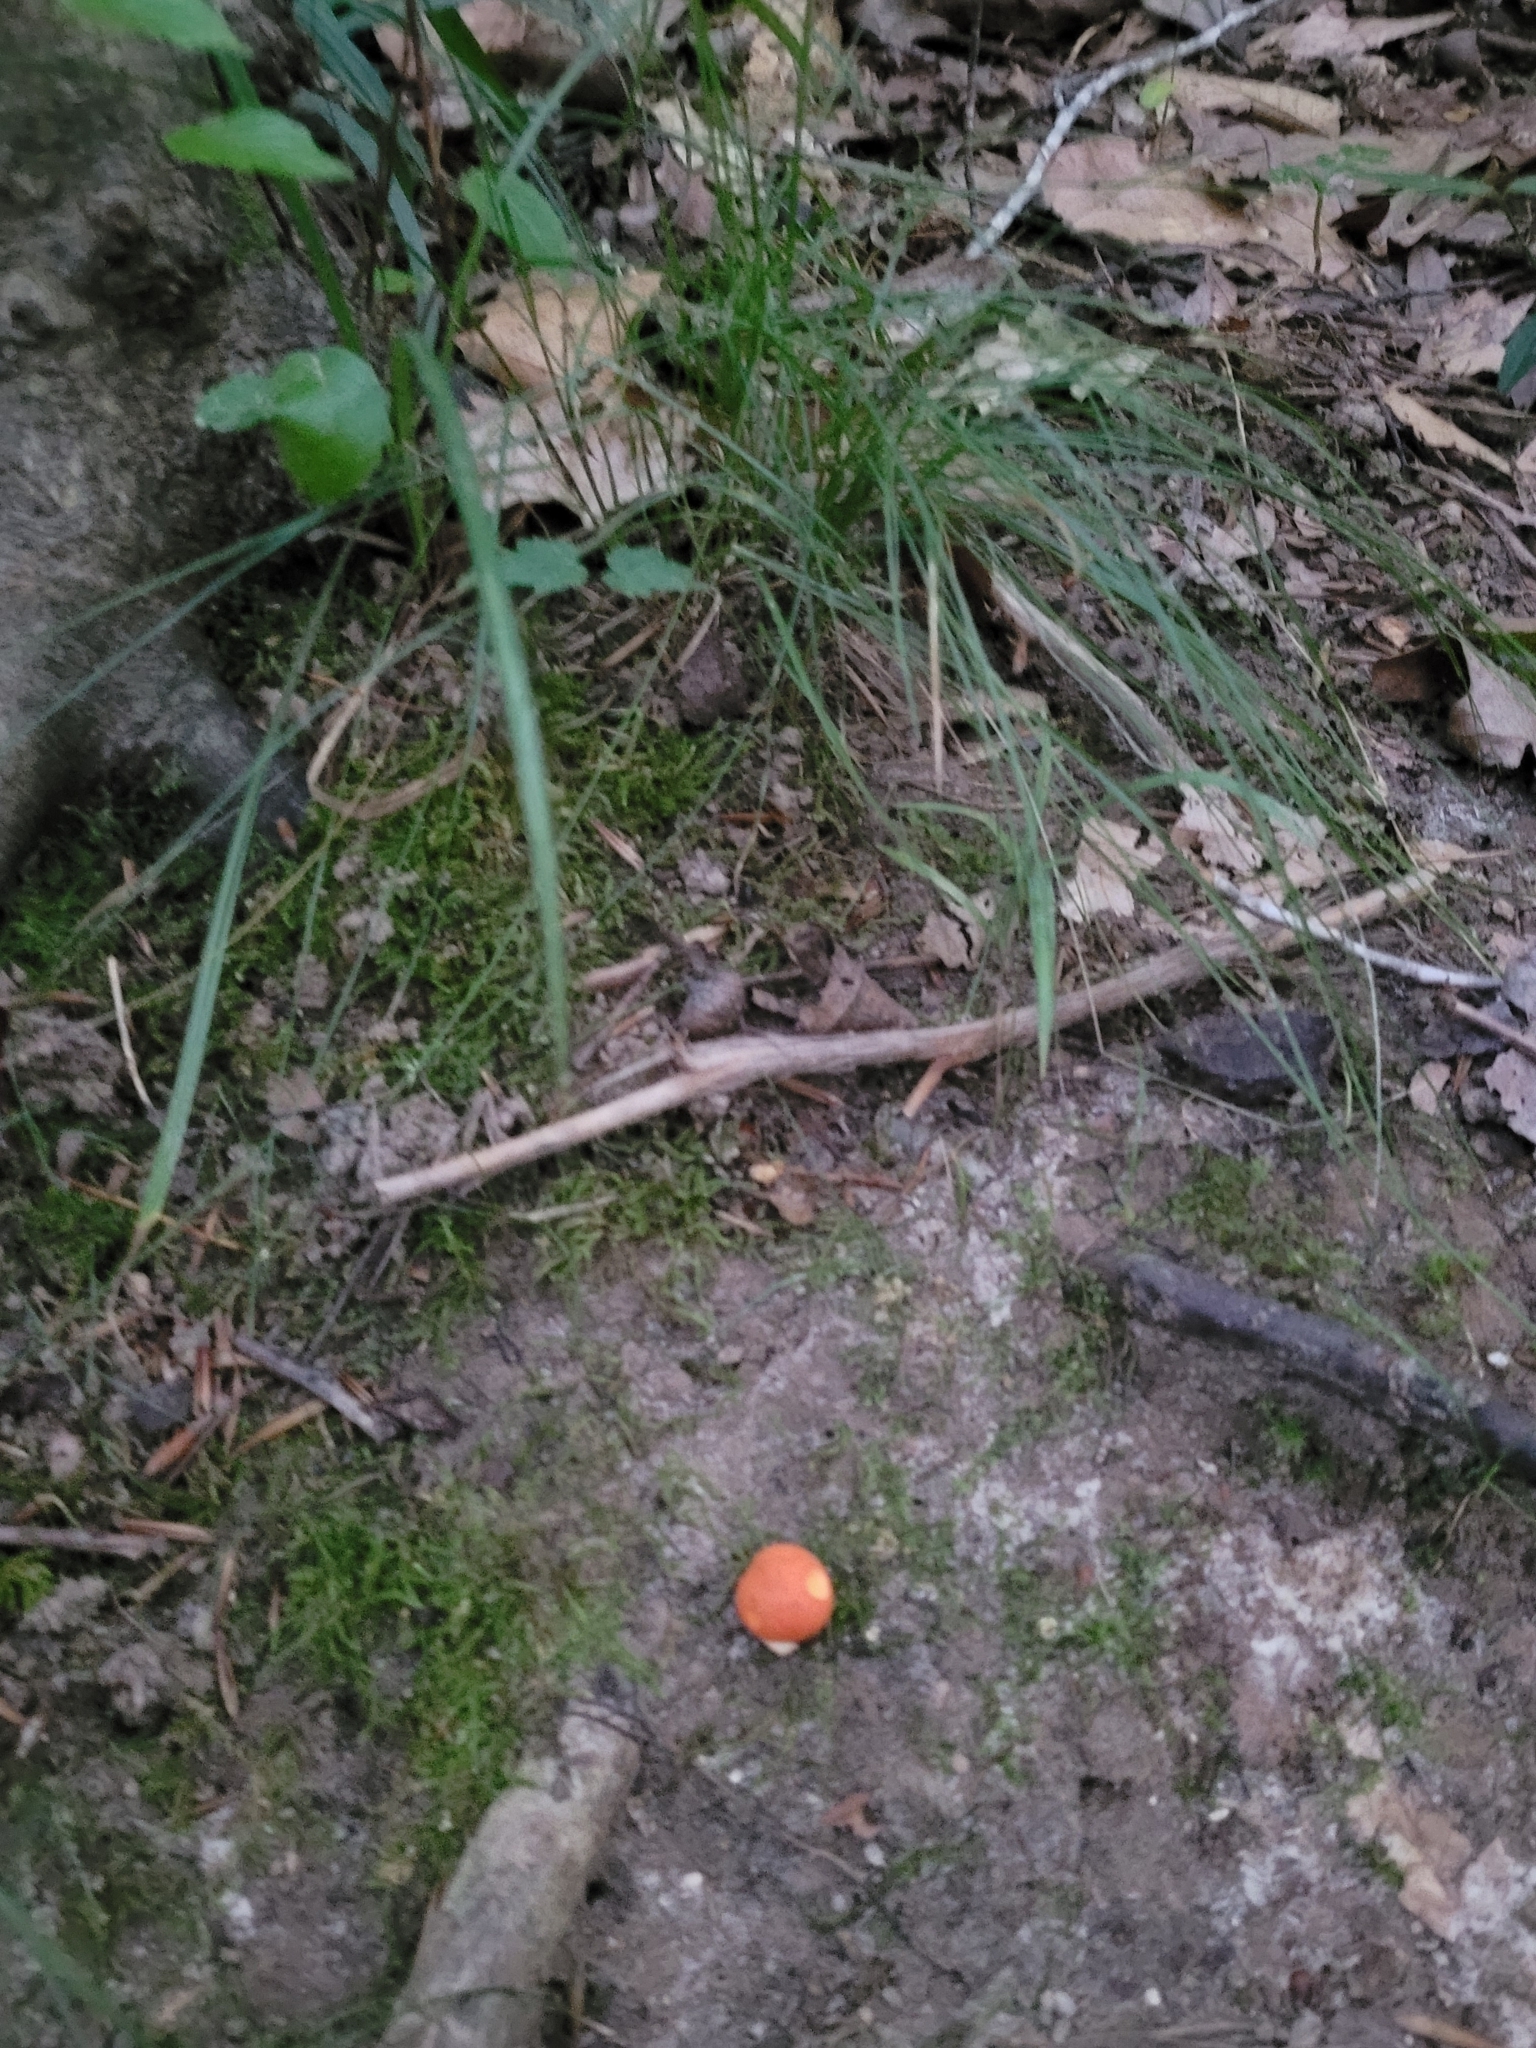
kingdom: Fungi
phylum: Basidiomycota
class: Agaricomycetes
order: Boletales
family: Boletaceae
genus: Tylopilus
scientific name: Tylopilus balloui
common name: Burnt-orange bolete
